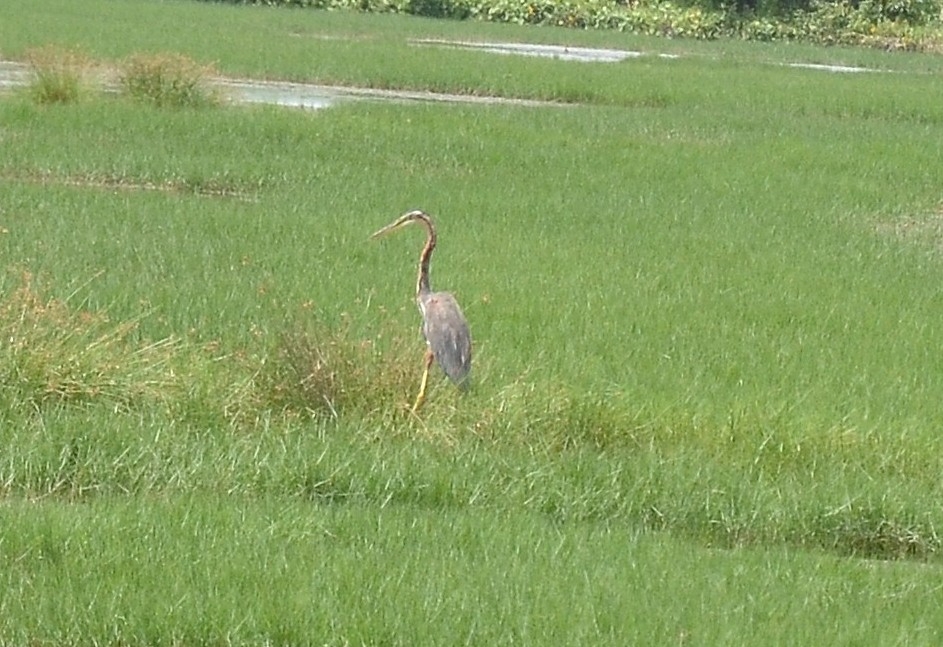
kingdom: Animalia
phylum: Chordata
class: Aves
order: Pelecaniformes
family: Ardeidae
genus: Ardea
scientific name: Ardea purpurea
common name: Purple heron
